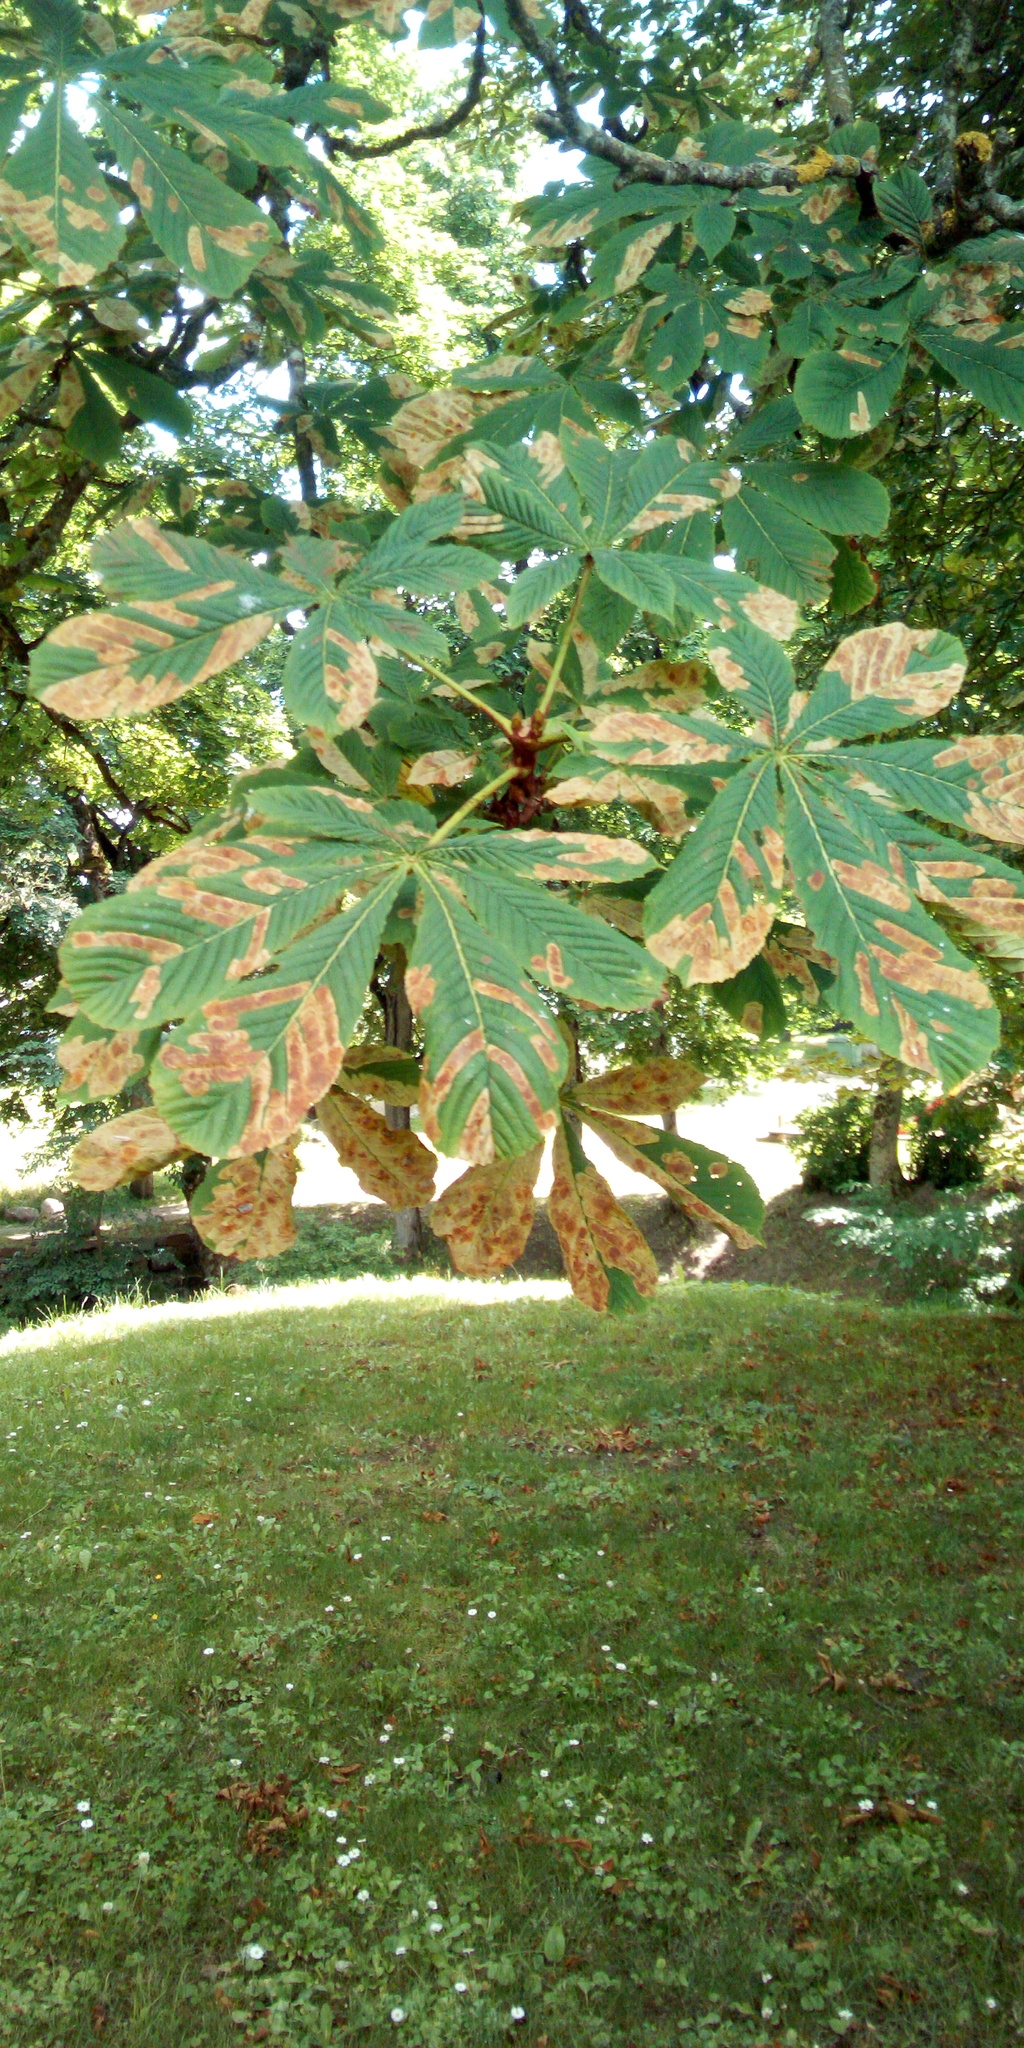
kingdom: Animalia
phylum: Arthropoda
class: Insecta
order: Lepidoptera
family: Gracillariidae
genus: Cameraria
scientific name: Cameraria ohridella
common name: Horse-chestnut leaf-miner
